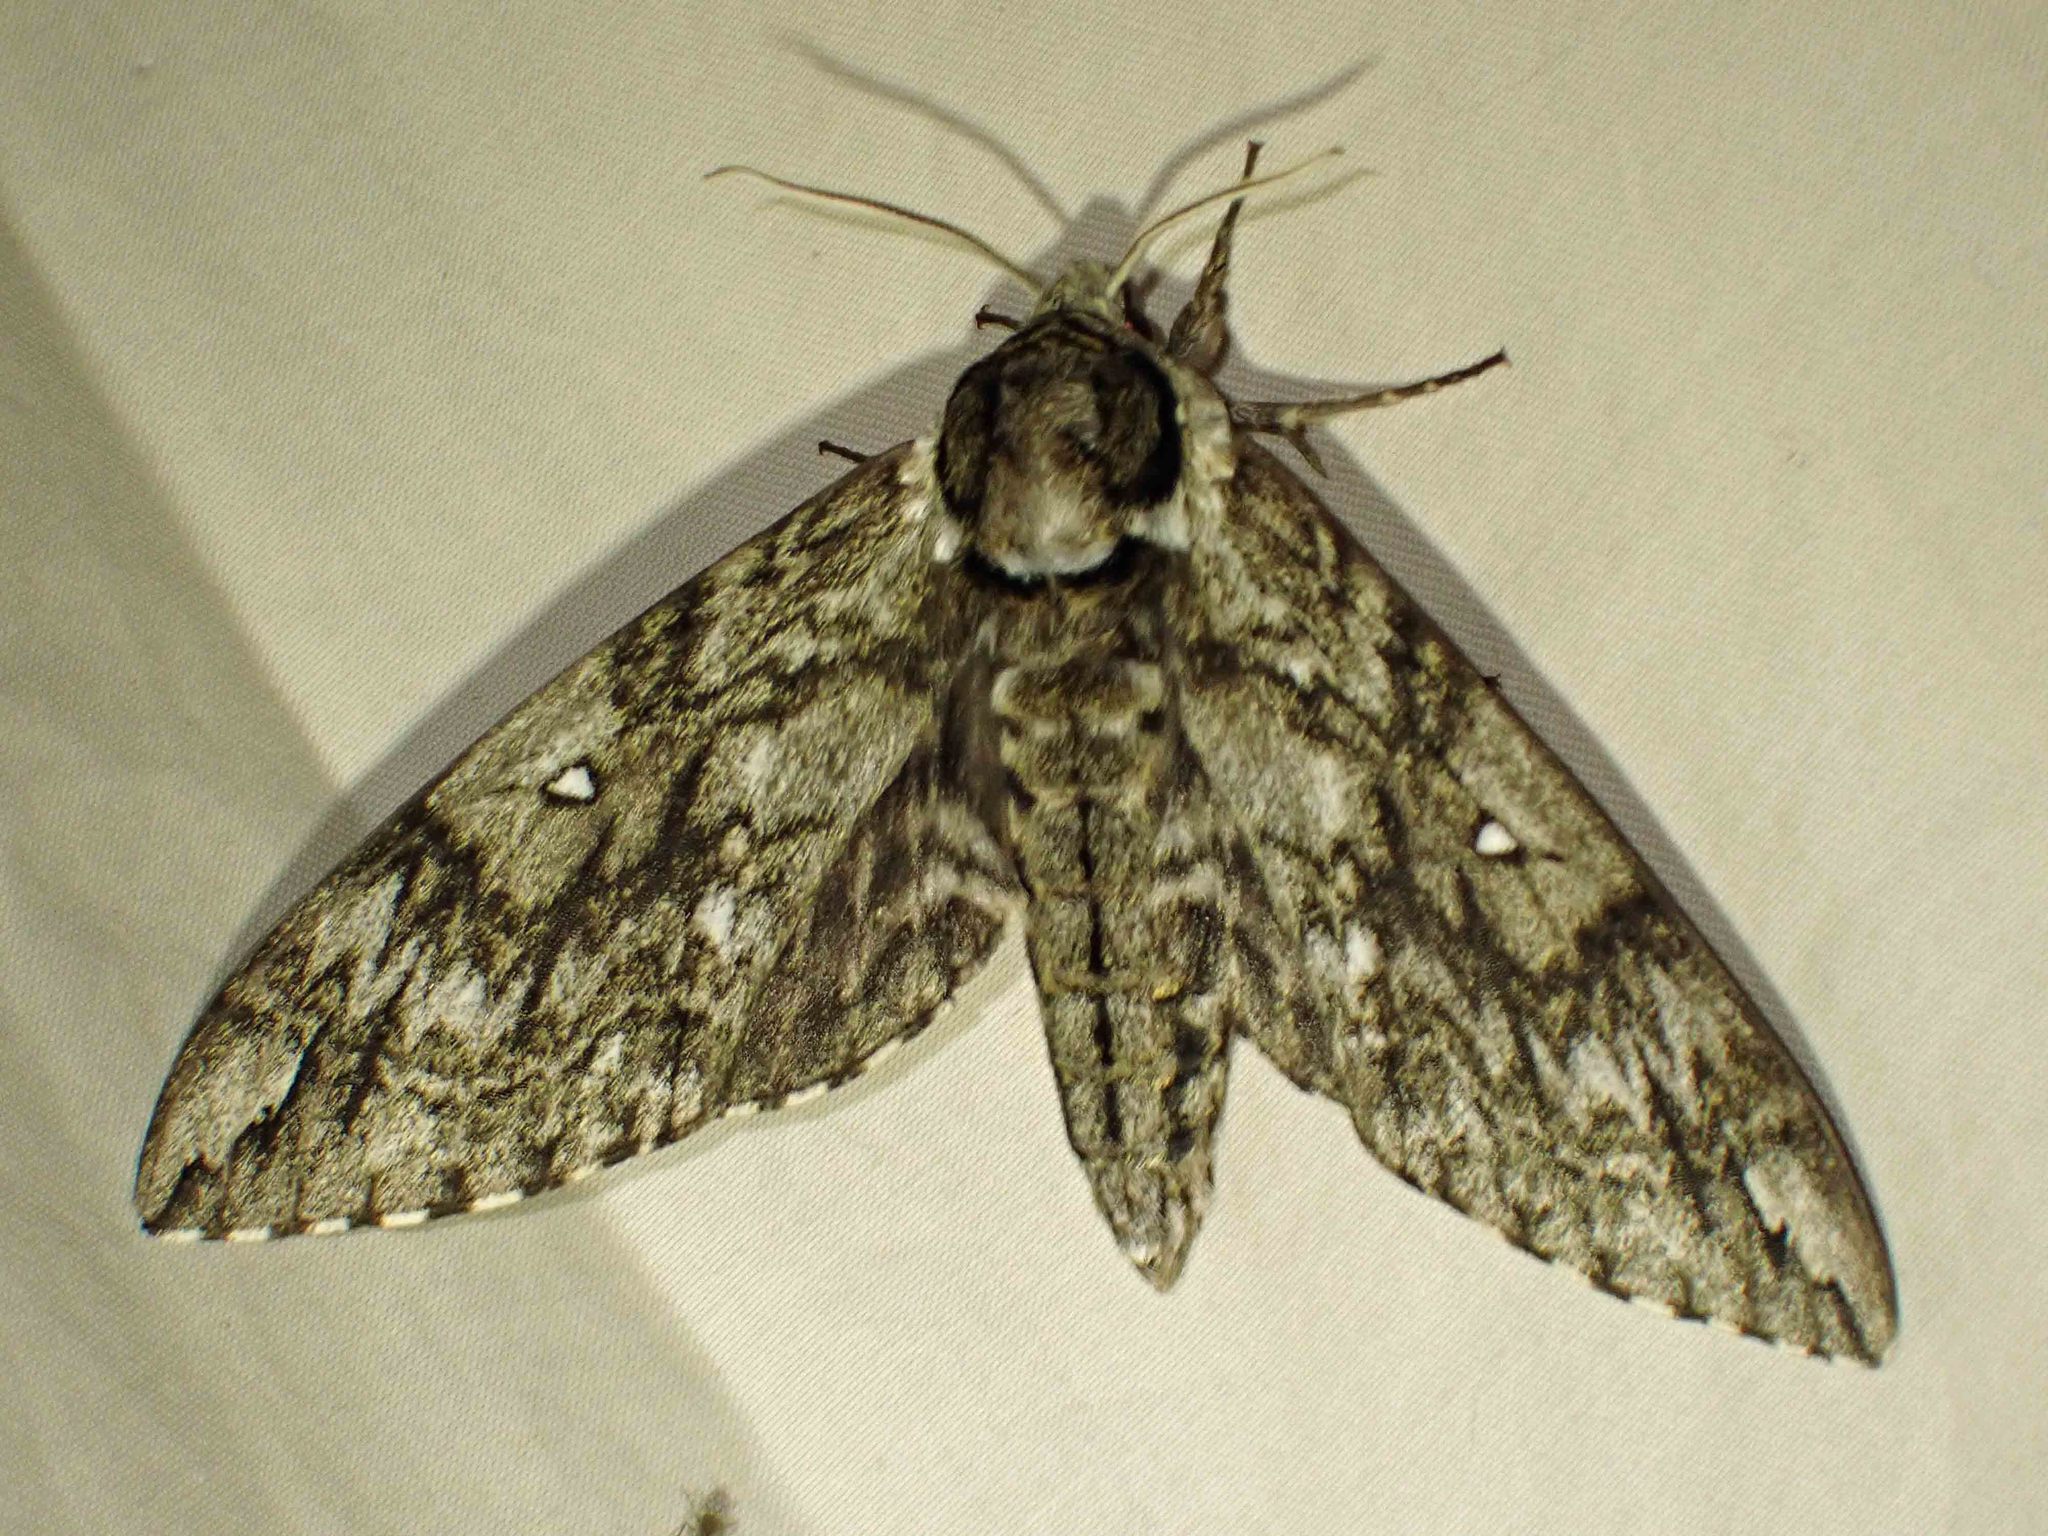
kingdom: Animalia
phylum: Arthropoda
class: Insecta
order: Lepidoptera
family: Sphingidae
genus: Ceratomia
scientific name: Ceratomia undulosa
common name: Waved sphinx
